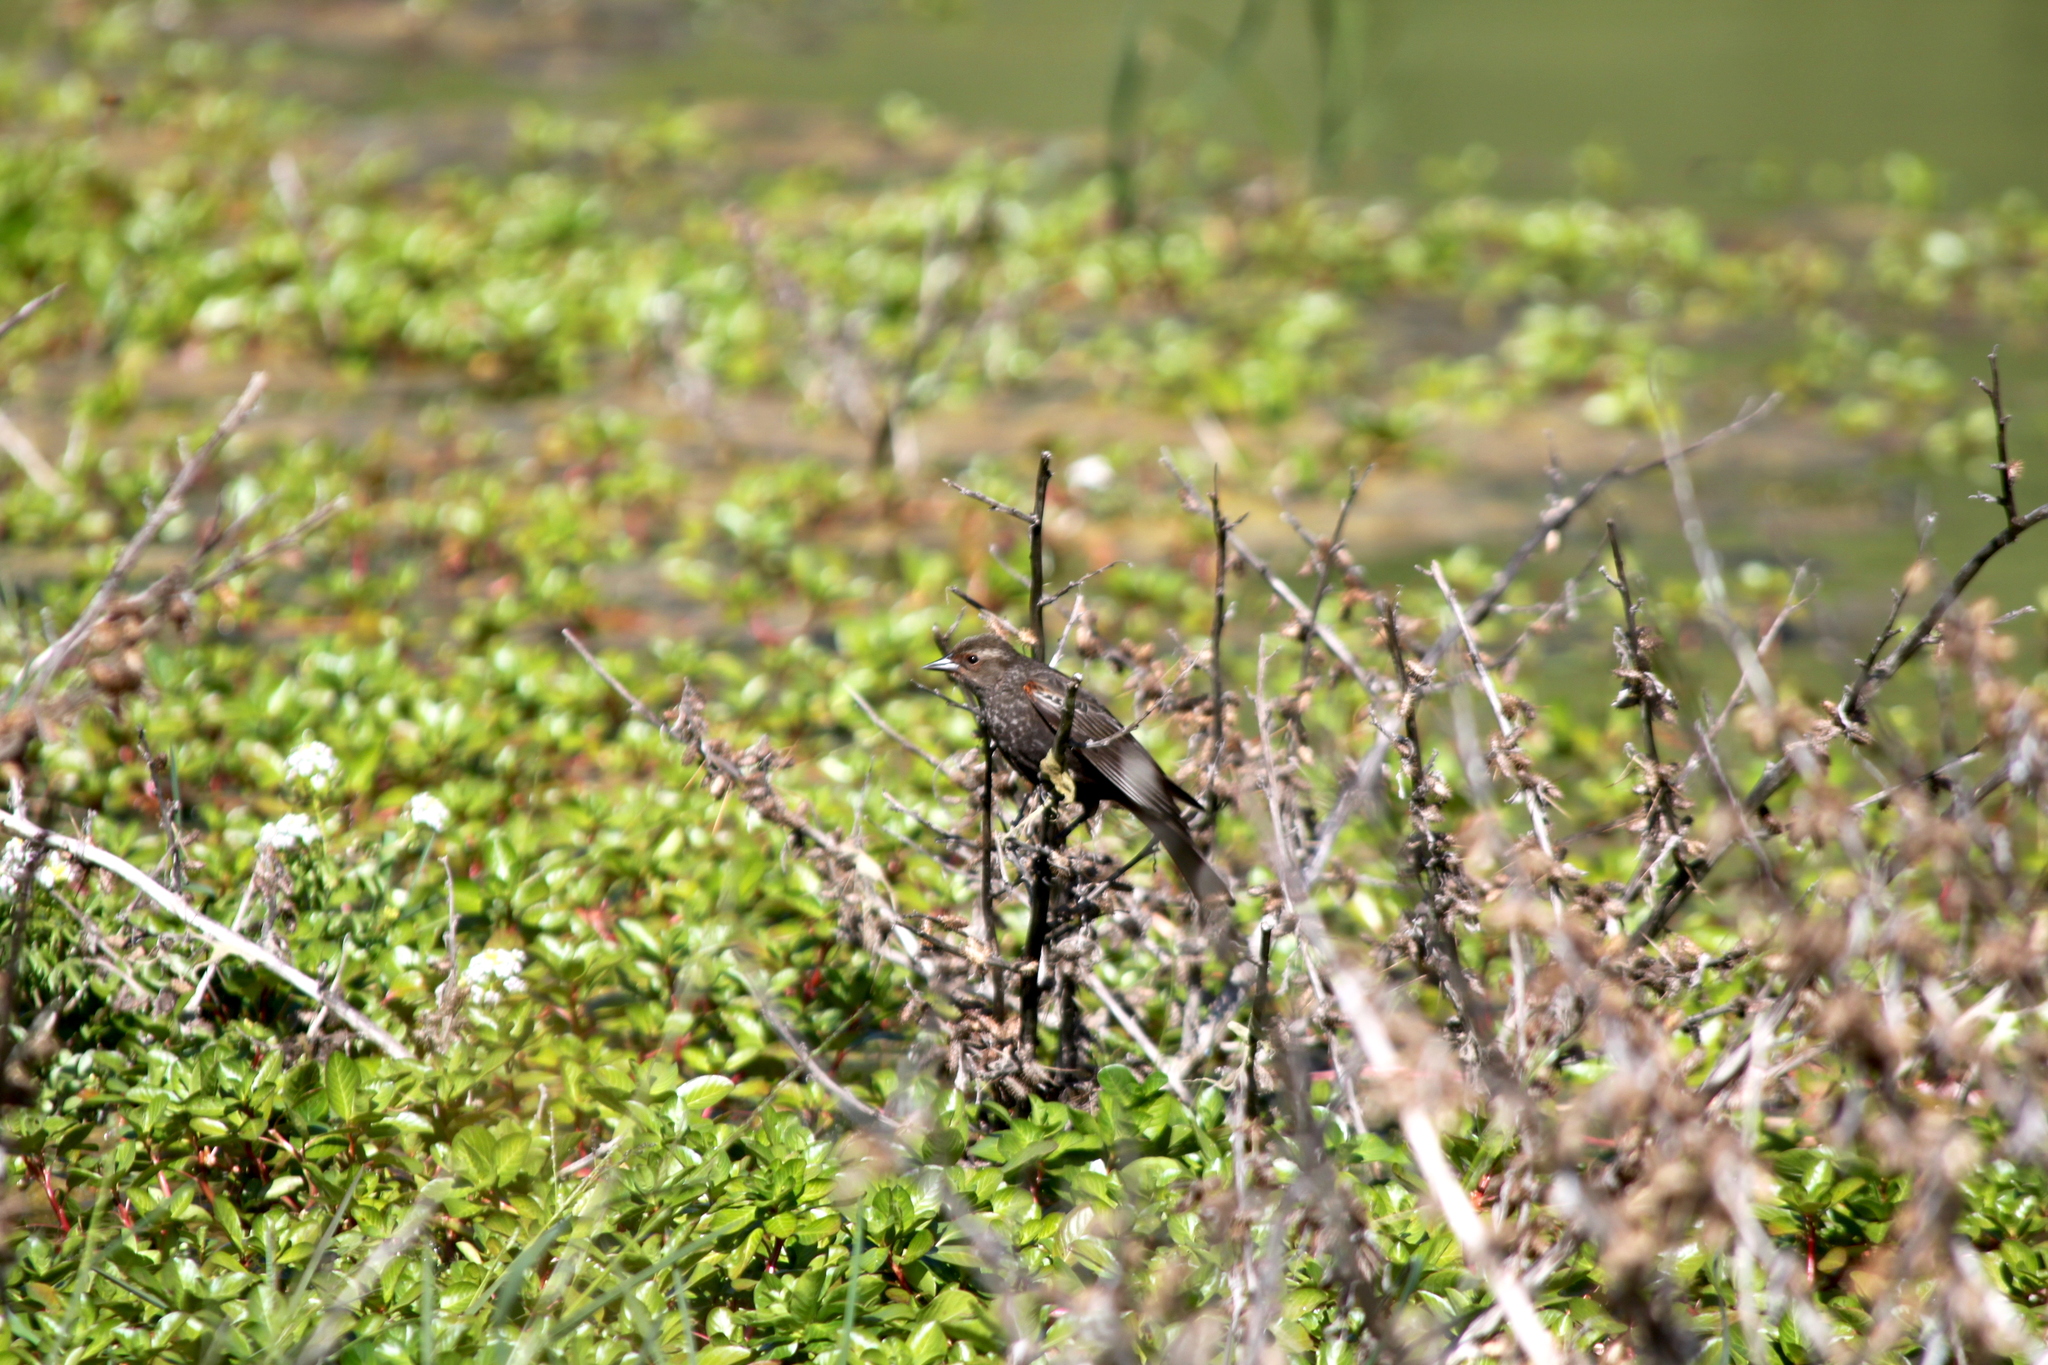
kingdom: Animalia
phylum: Chordata
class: Aves
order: Passeriformes
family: Icteridae
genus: Agelaius
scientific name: Agelaius phoeniceus
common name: Red-winged blackbird
